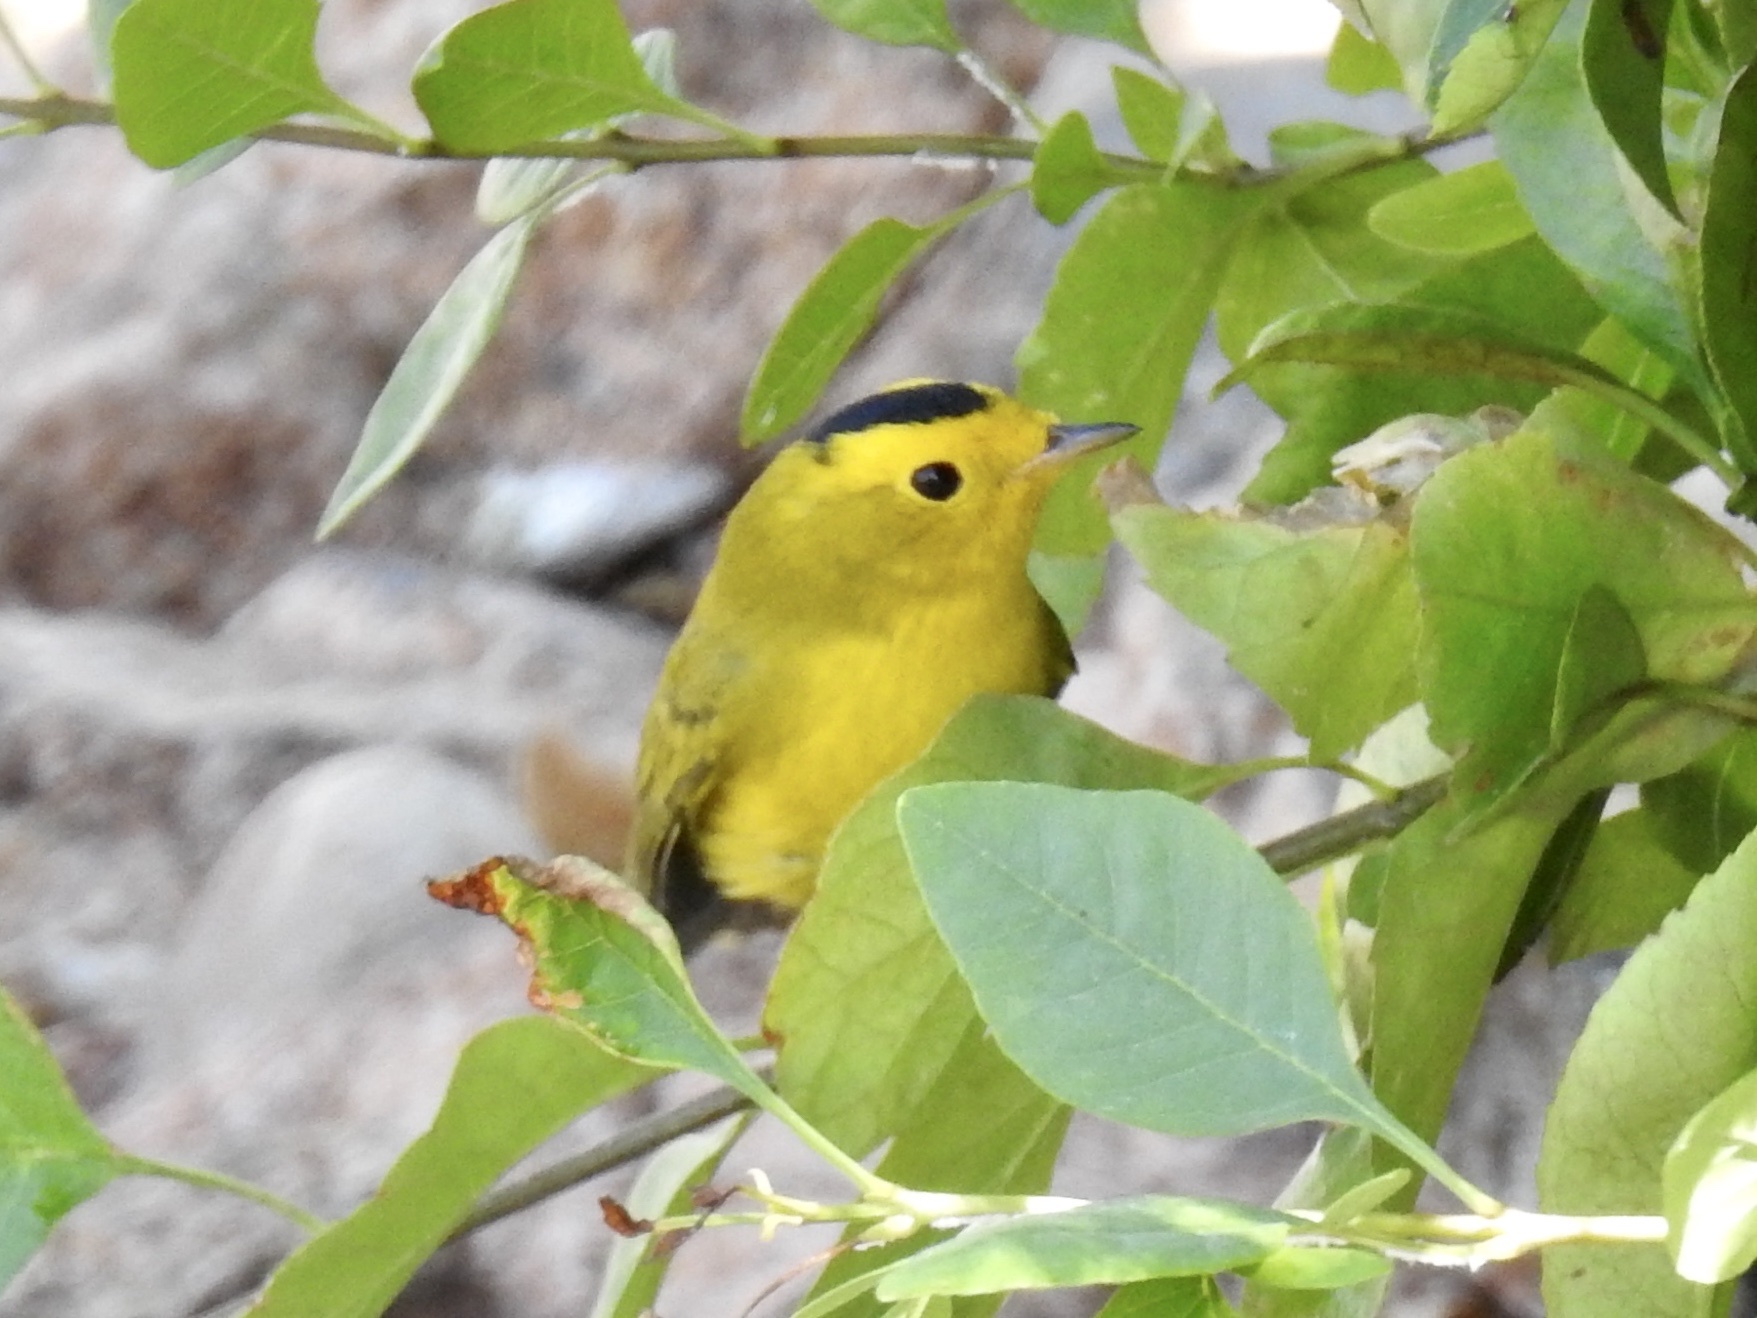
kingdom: Animalia
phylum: Chordata
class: Aves
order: Passeriformes
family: Parulidae
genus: Cardellina
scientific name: Cardellina pusilla
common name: Wilson's warbler
